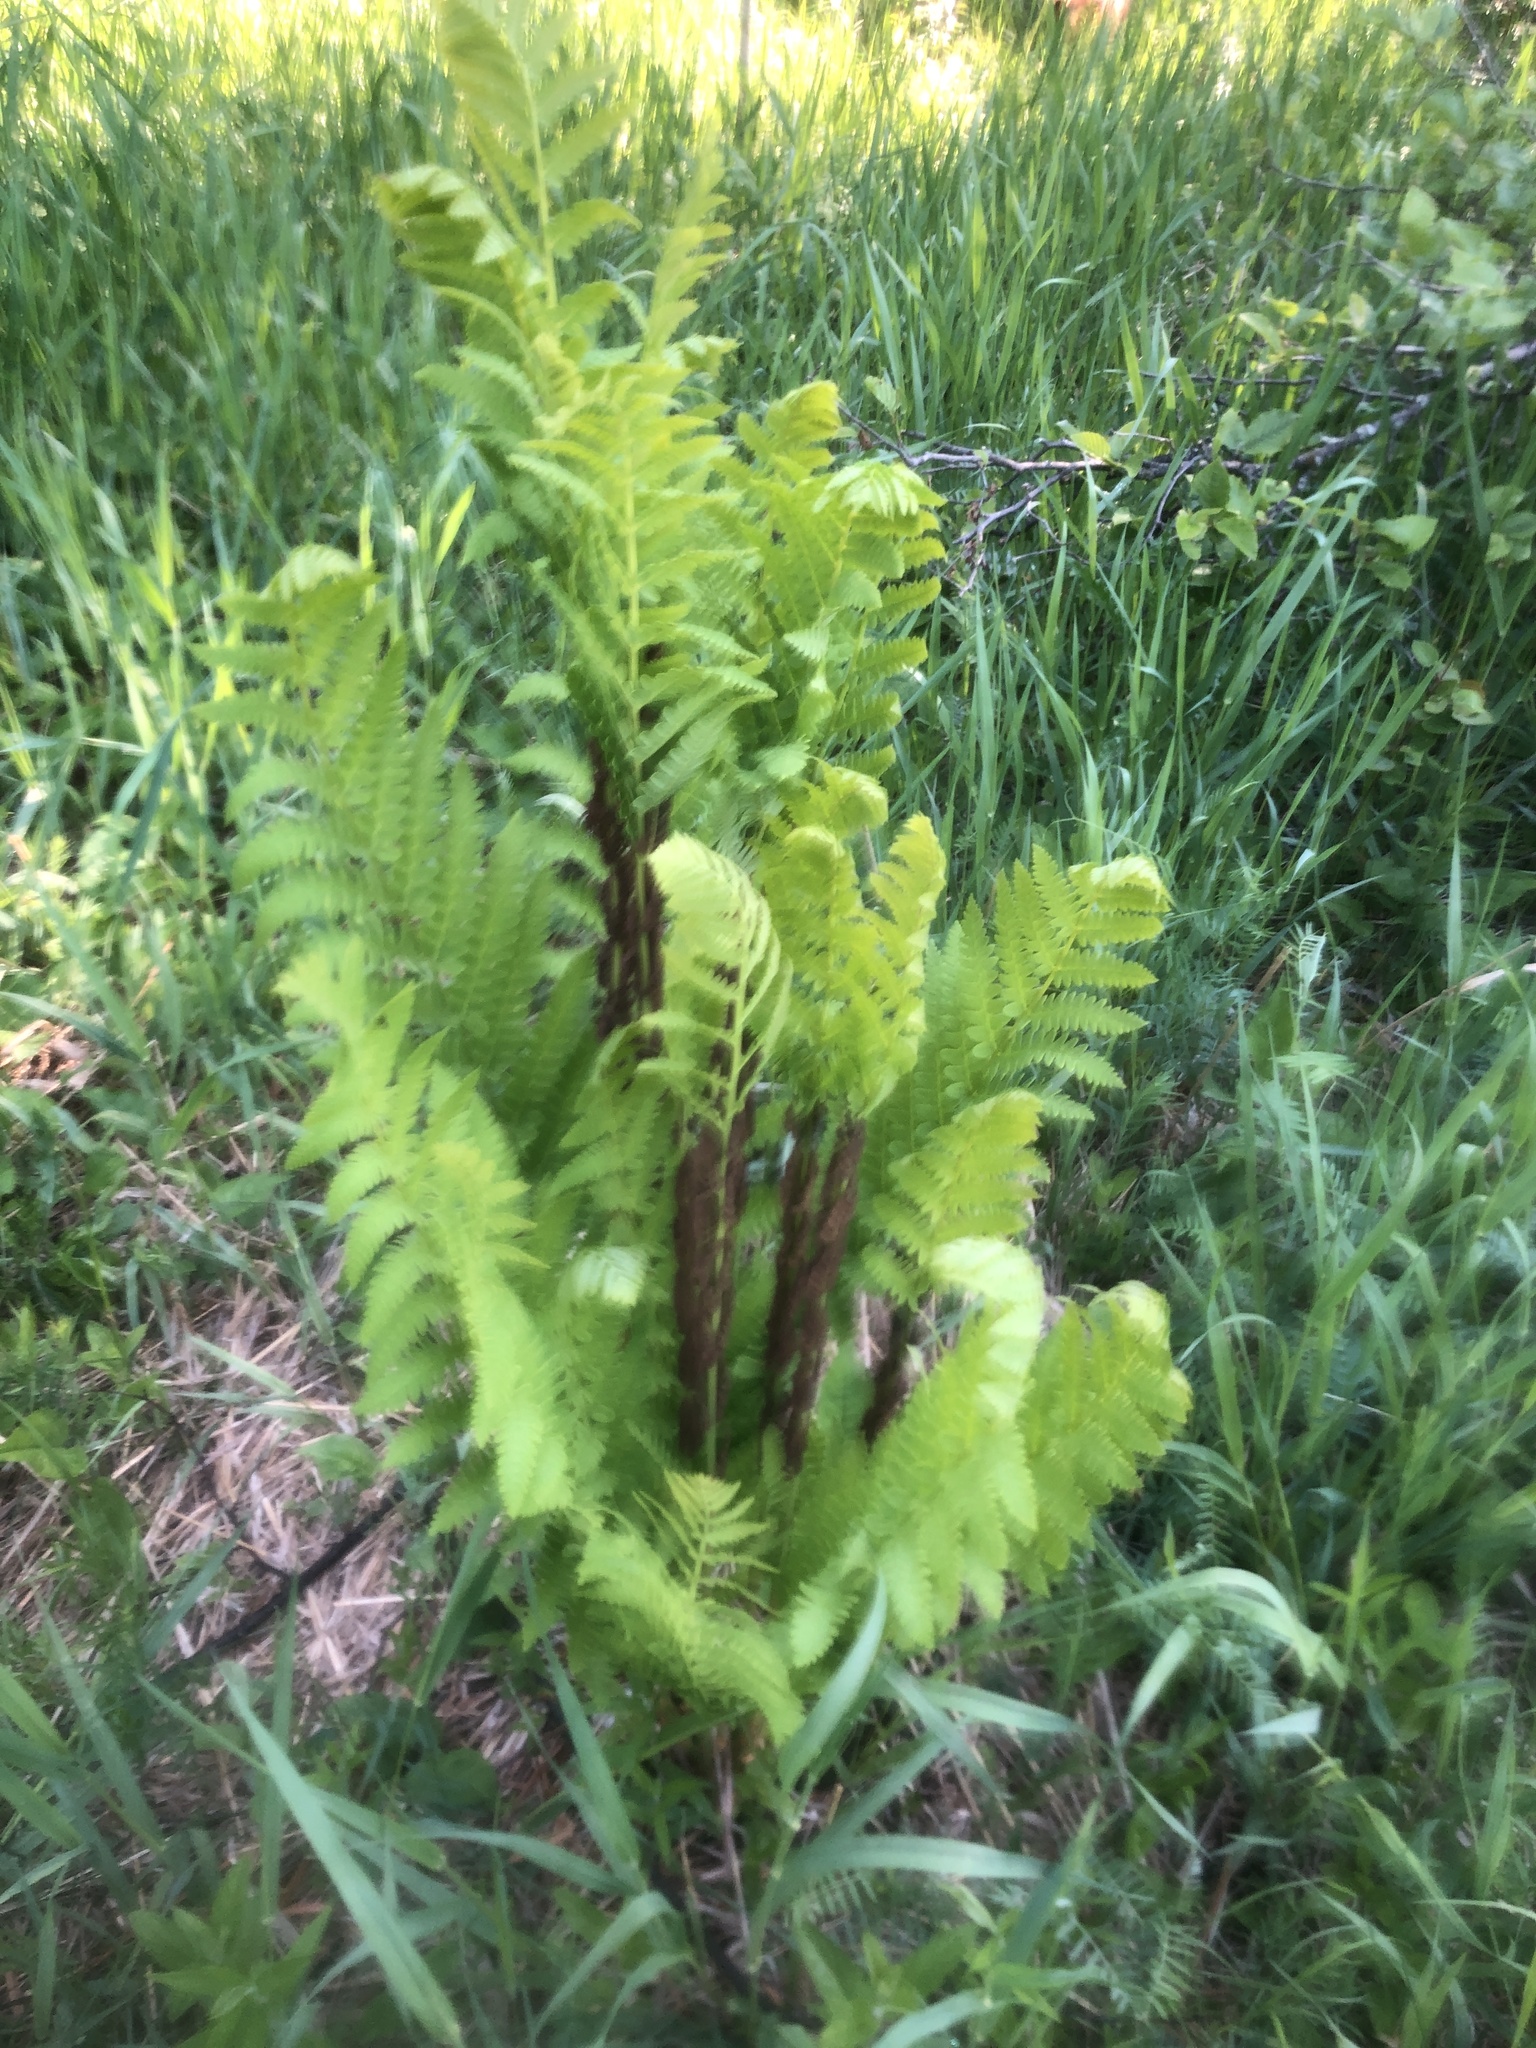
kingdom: Plantae
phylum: Tracheophyta
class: Polypodiopsida
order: Osmundales
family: Osmundaceae
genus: Claytosmunda
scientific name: Claytosmunda claytoniana
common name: Clayton's fern
